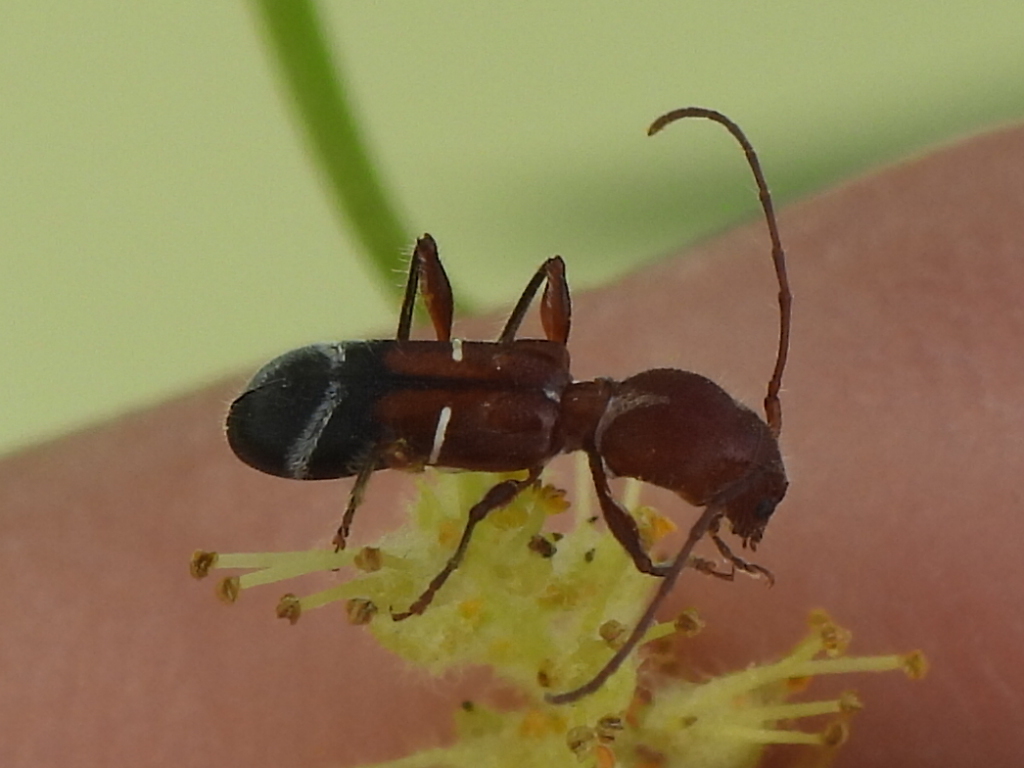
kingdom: Animalia
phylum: Arthropoda
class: Insecta
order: Coleoptera
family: Cerambycidae
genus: Euderces
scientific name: Euderces pini
